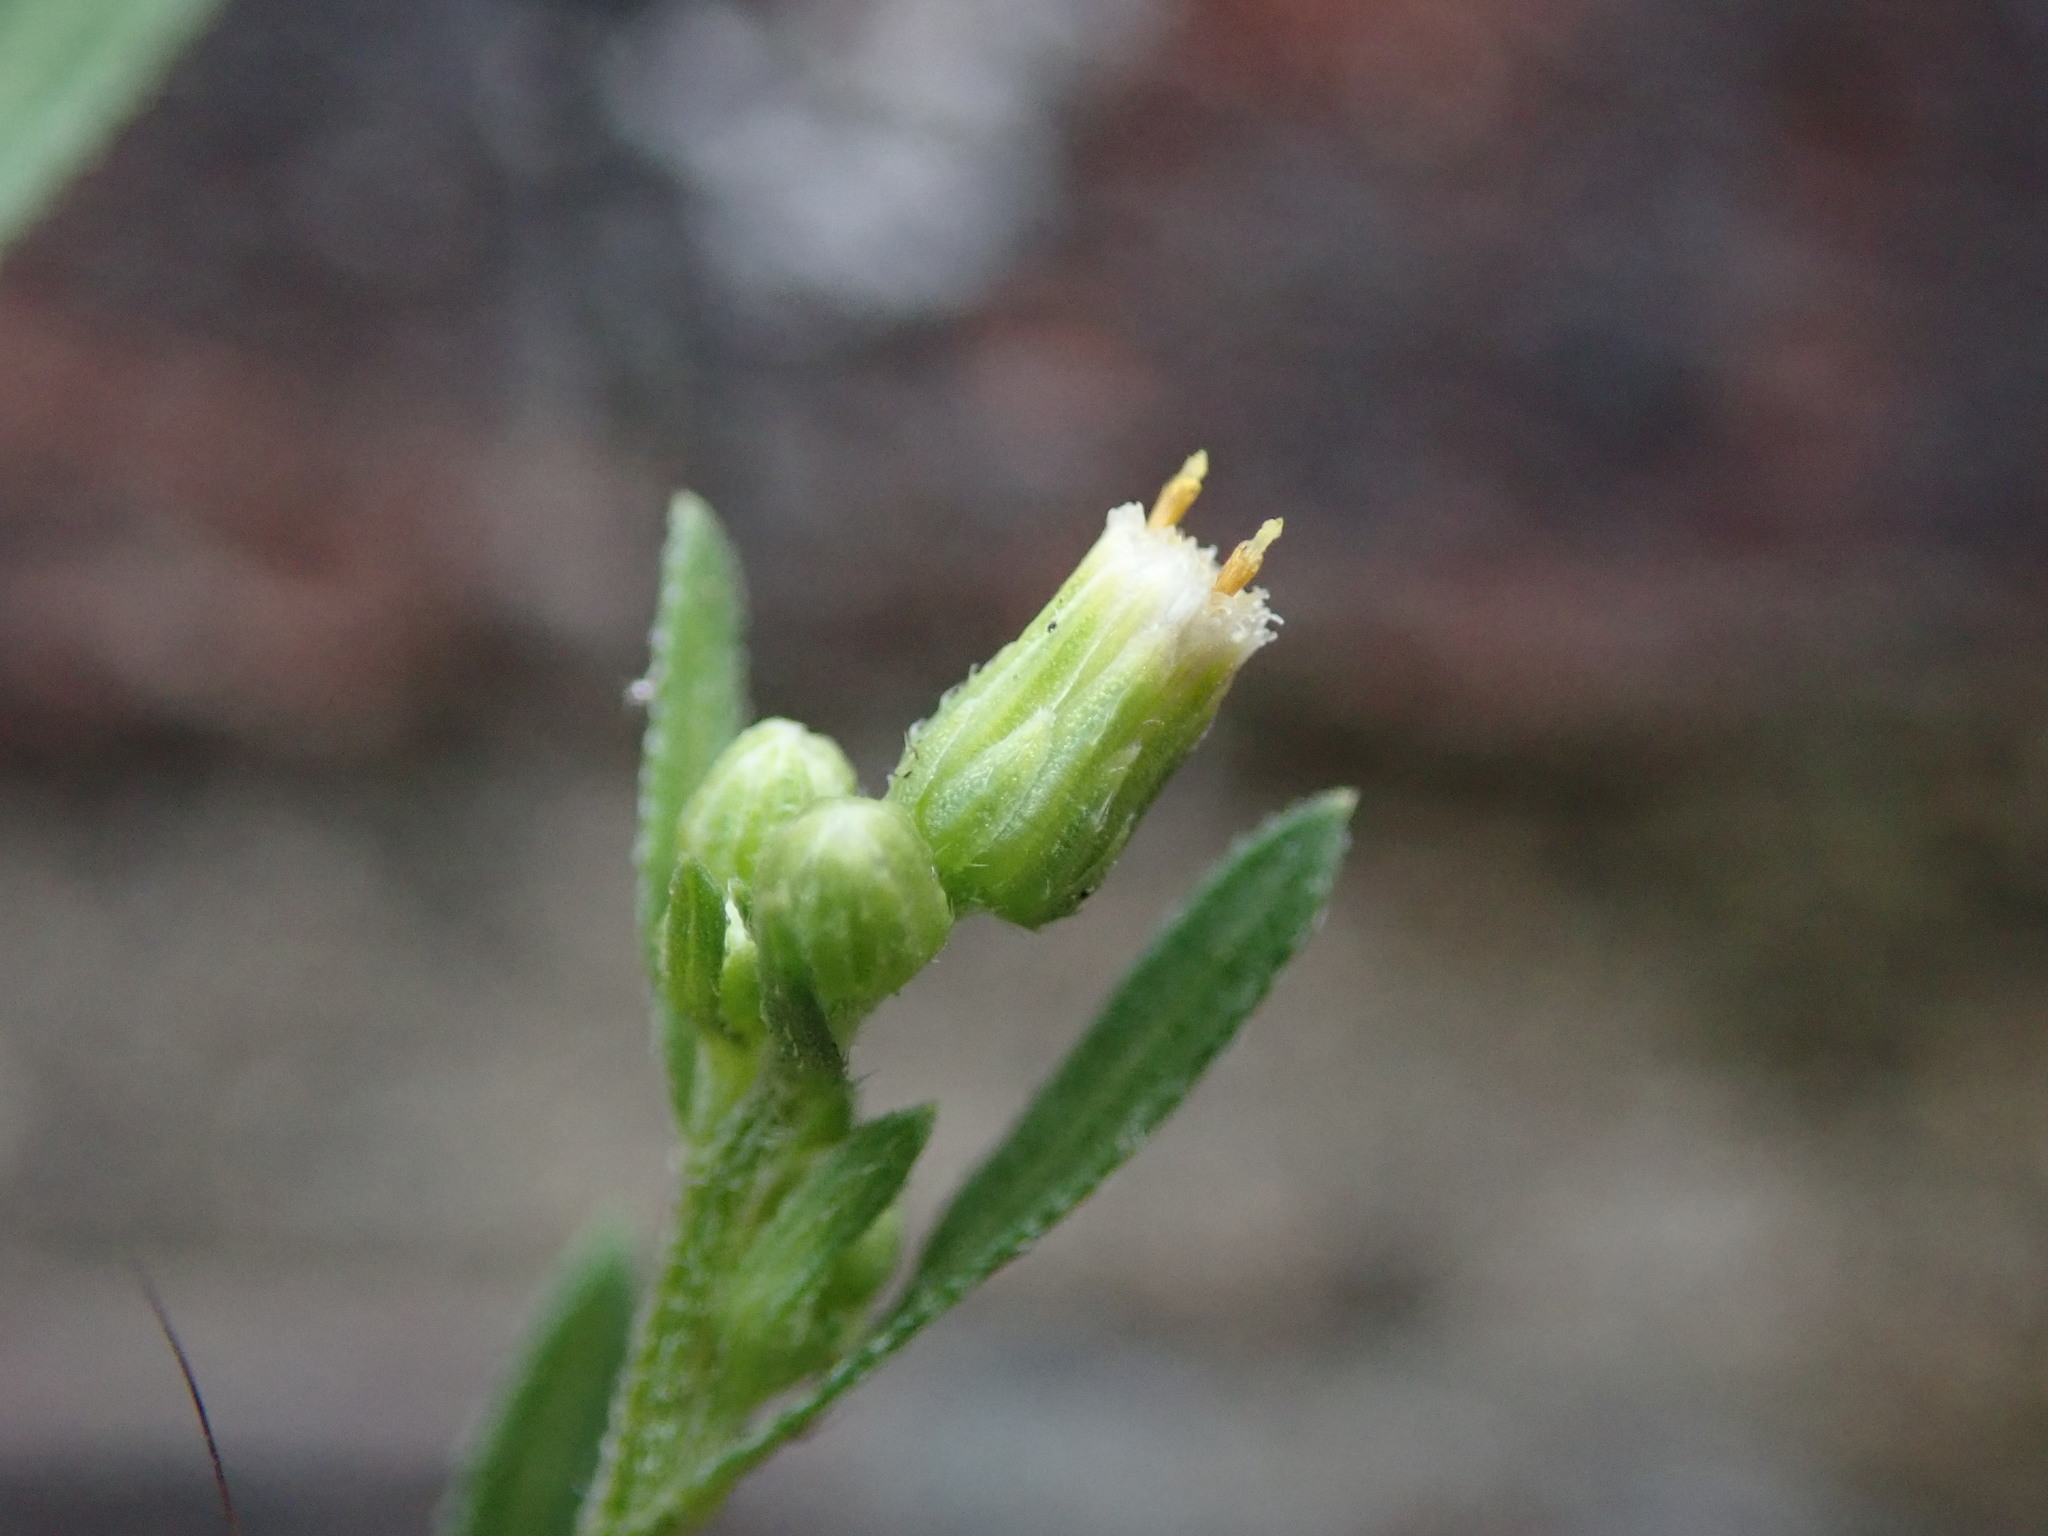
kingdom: Plantae
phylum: Tracheophyta
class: Magnoliopsida
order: Asterales
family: Asteraceae
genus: Erigeron
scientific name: Erigeron floribundus
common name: Bilbao fleabane
